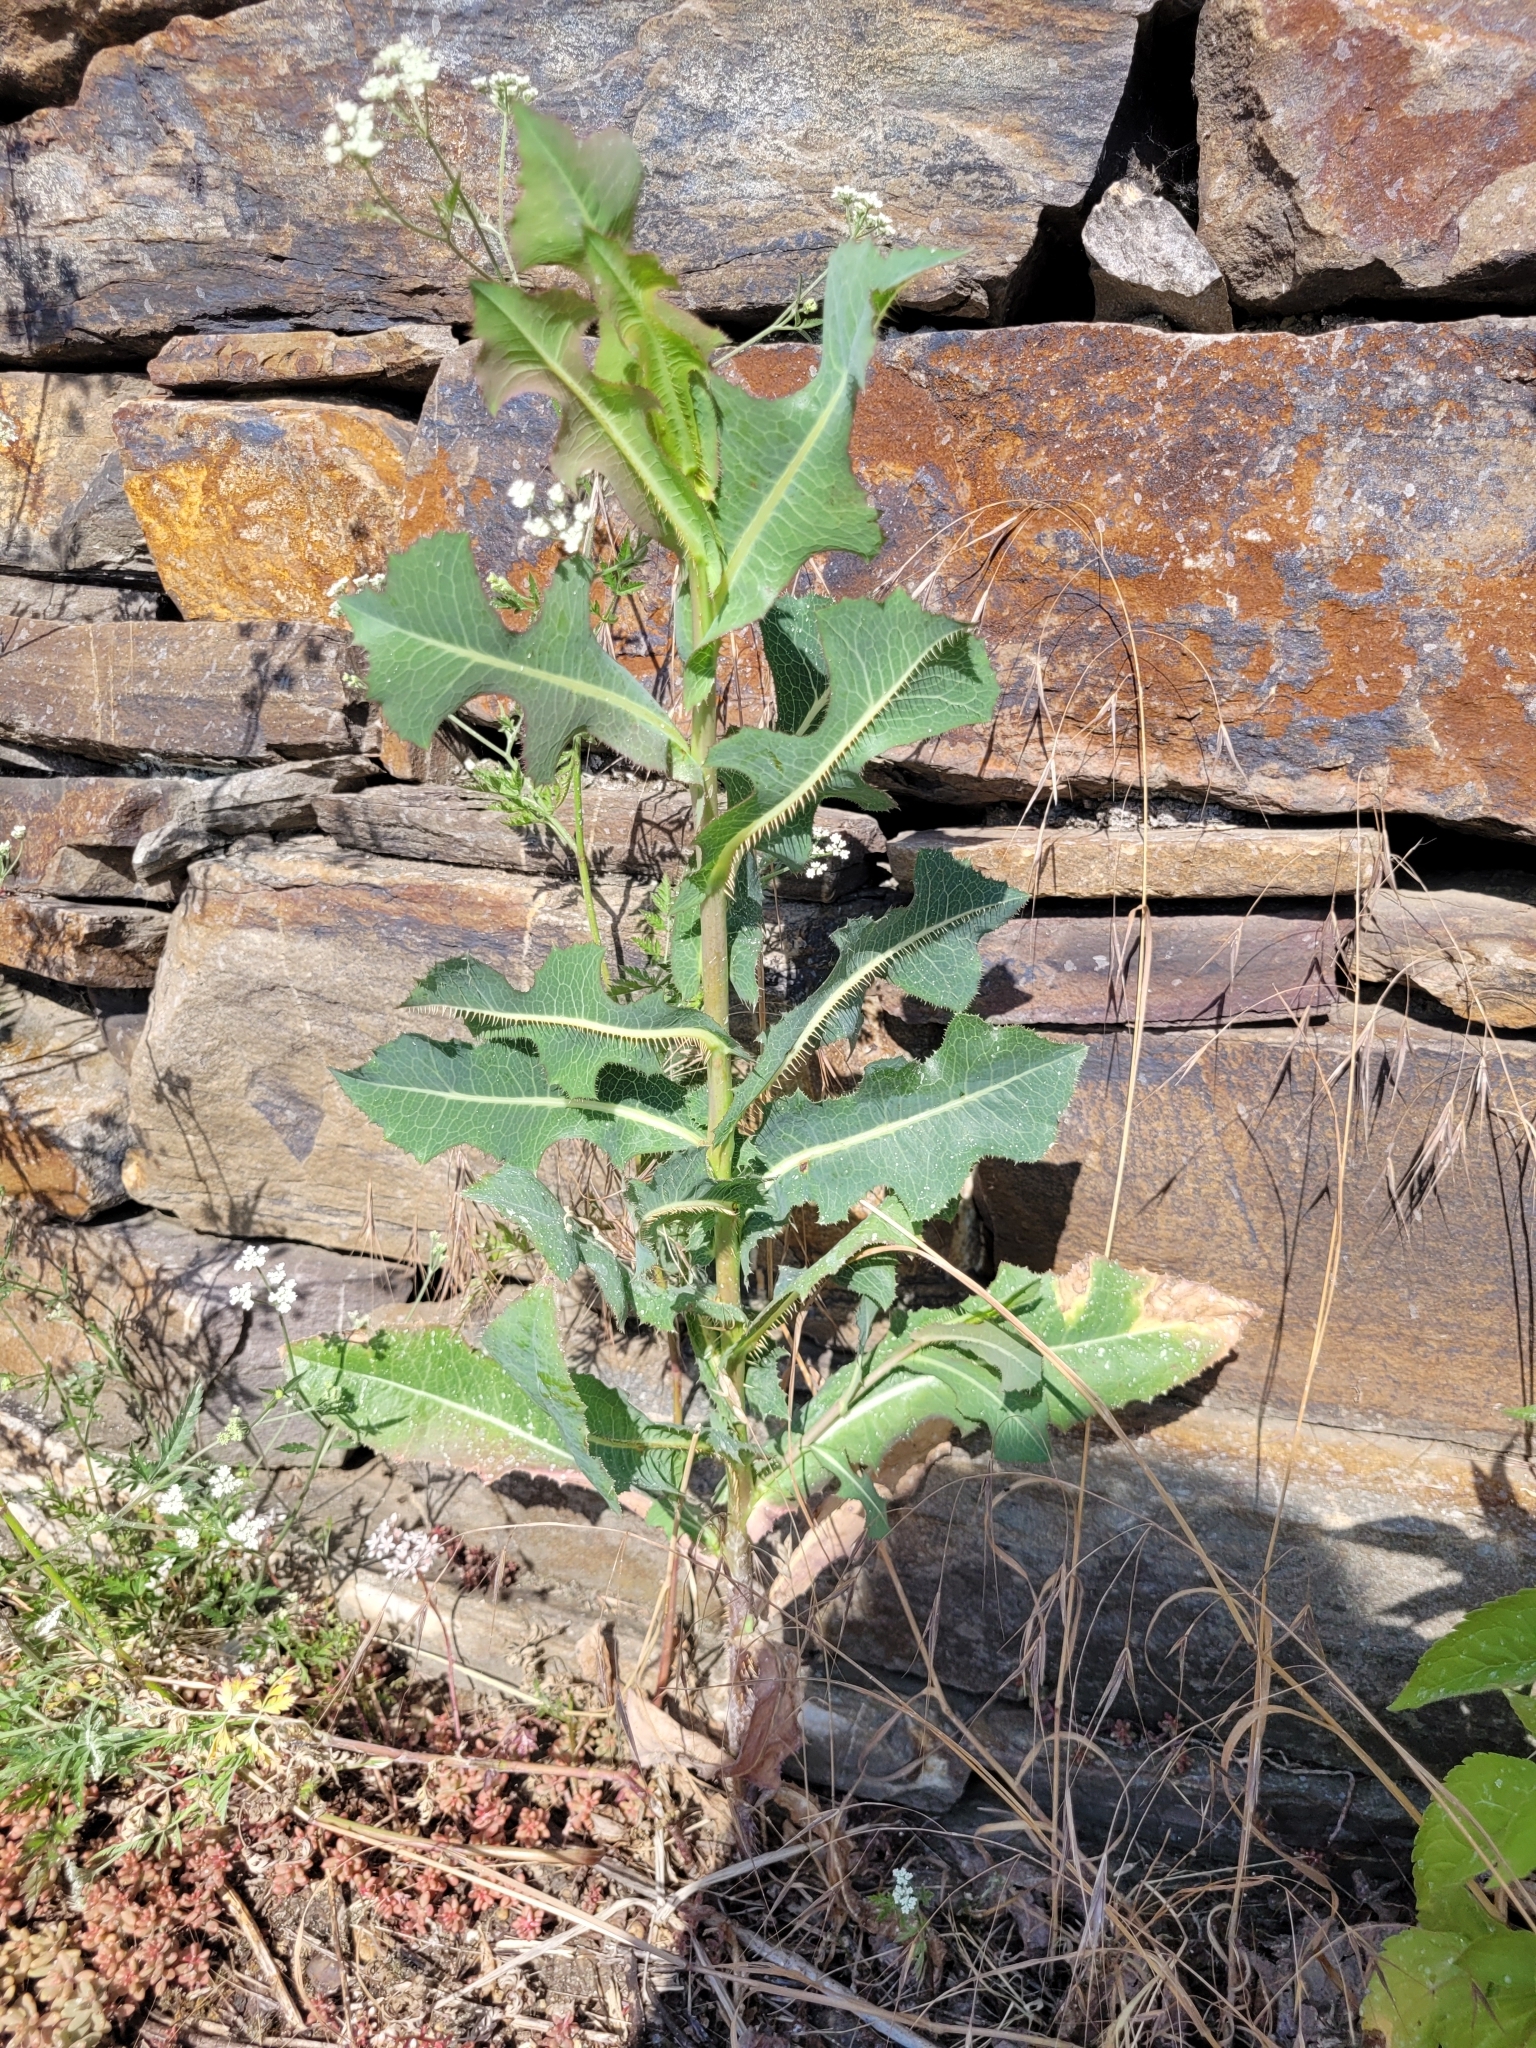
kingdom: Plantae
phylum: Tracheophyta
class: Magnoliopsida
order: Asterales
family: Asteraceae
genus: Lactuca
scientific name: Lactuca serriola
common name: Prickly lettuce
